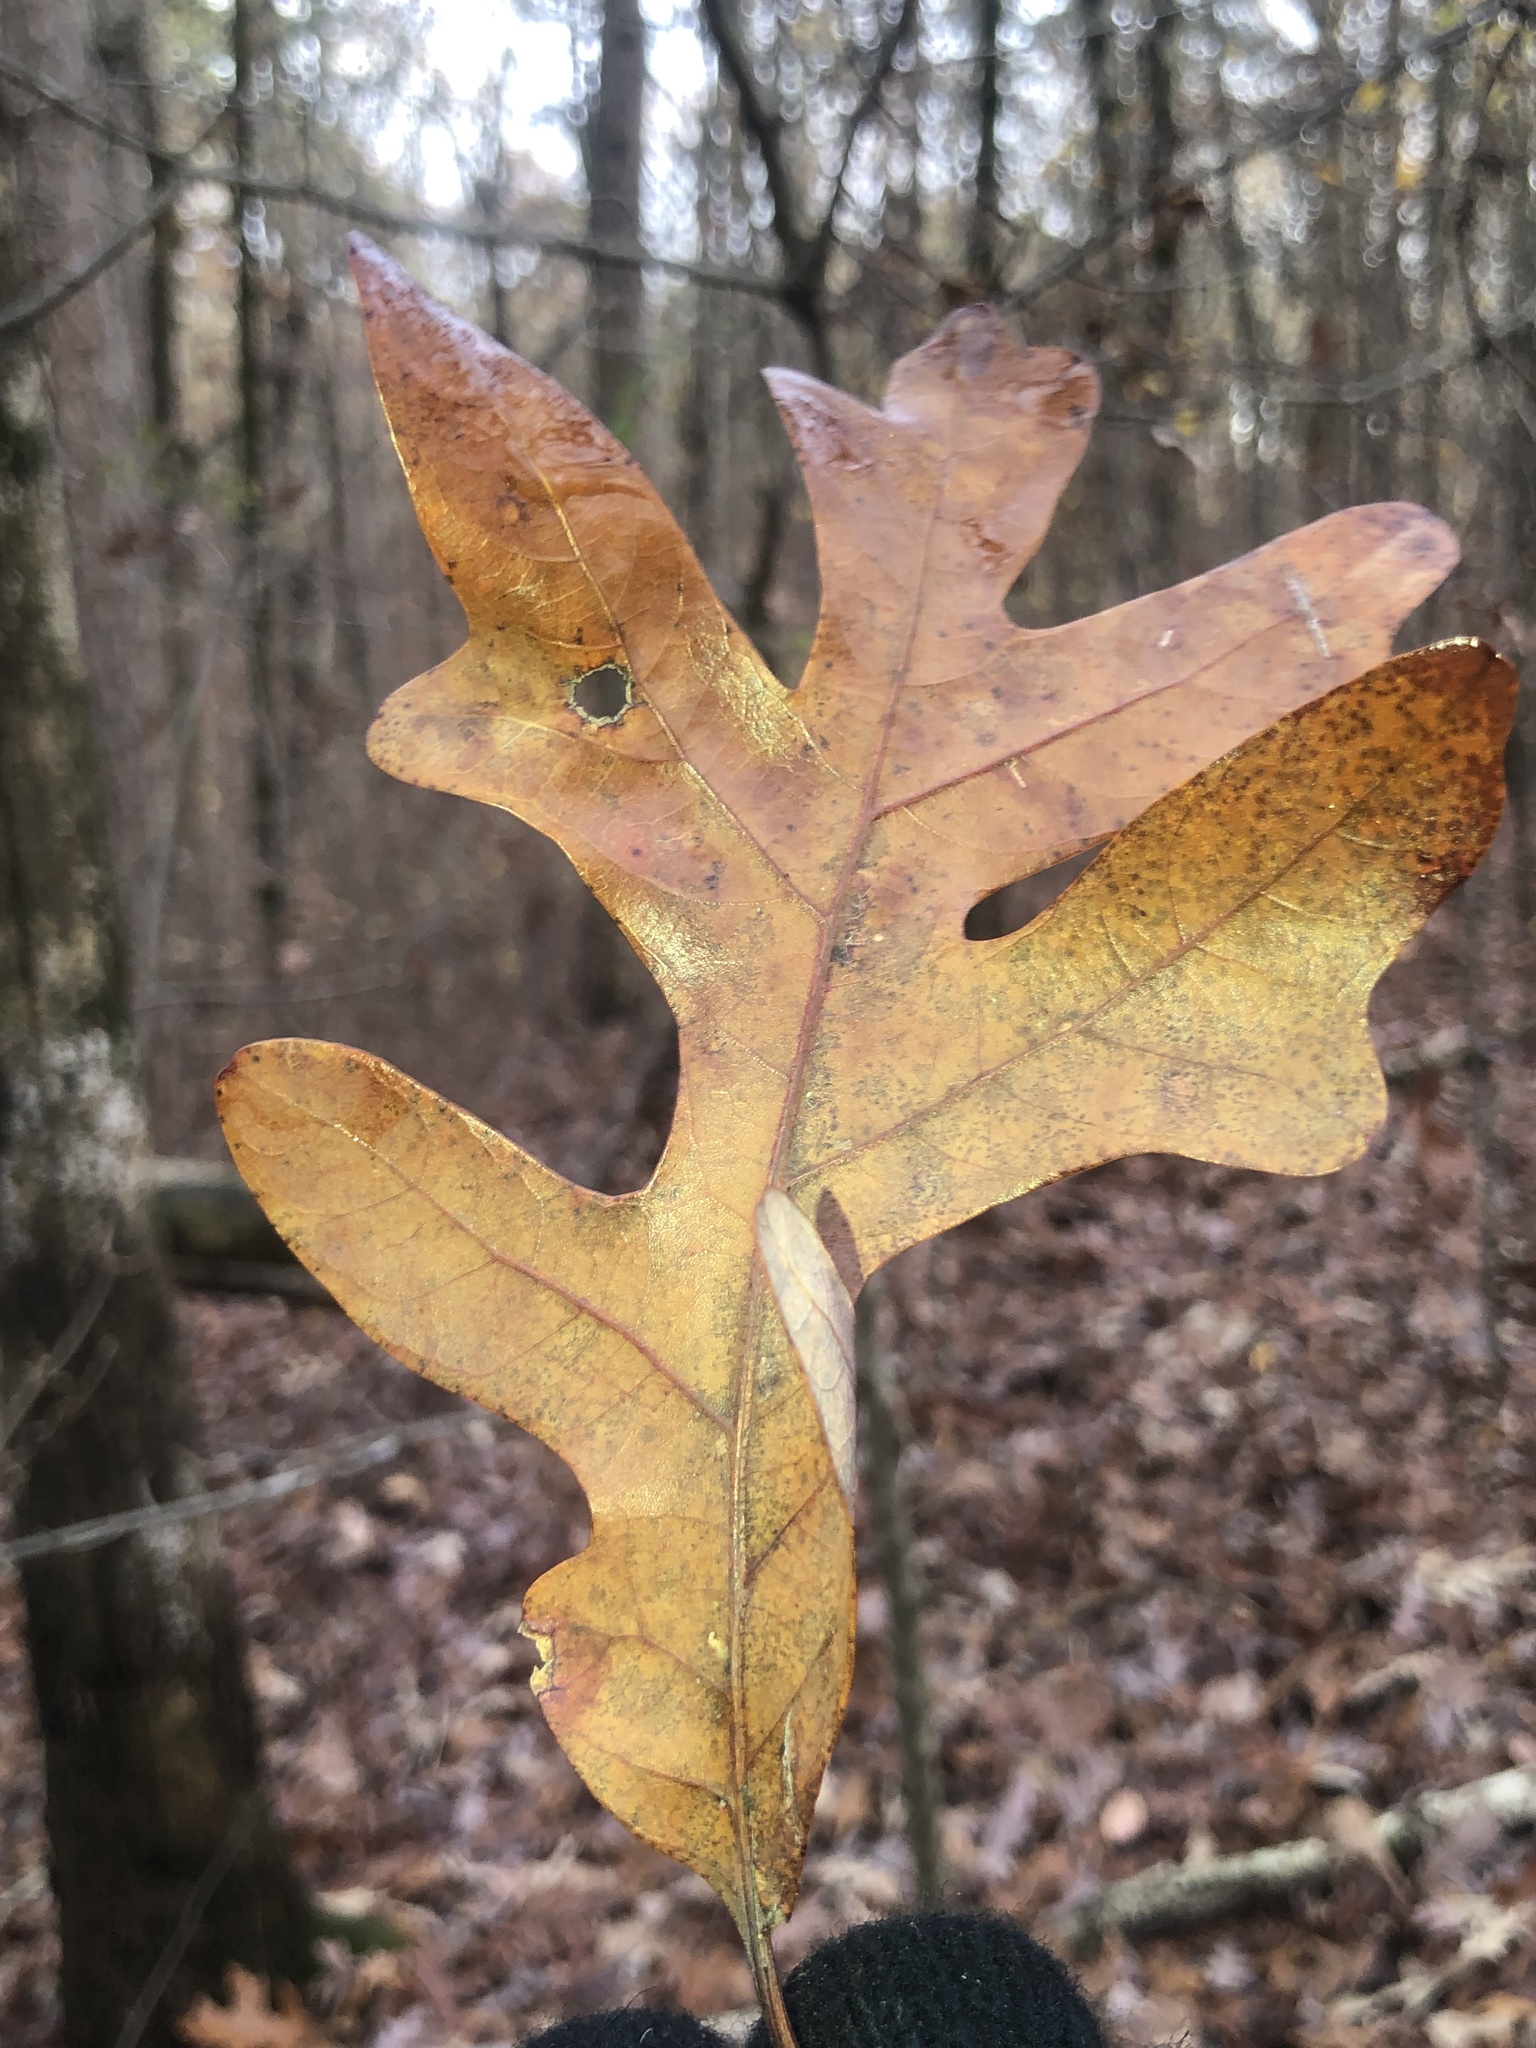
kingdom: Plantae
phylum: Tracheophyta
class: Magnoliopsida
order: Fagales
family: Fagaceae
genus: Quercus
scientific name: Quercus alba
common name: White oak
